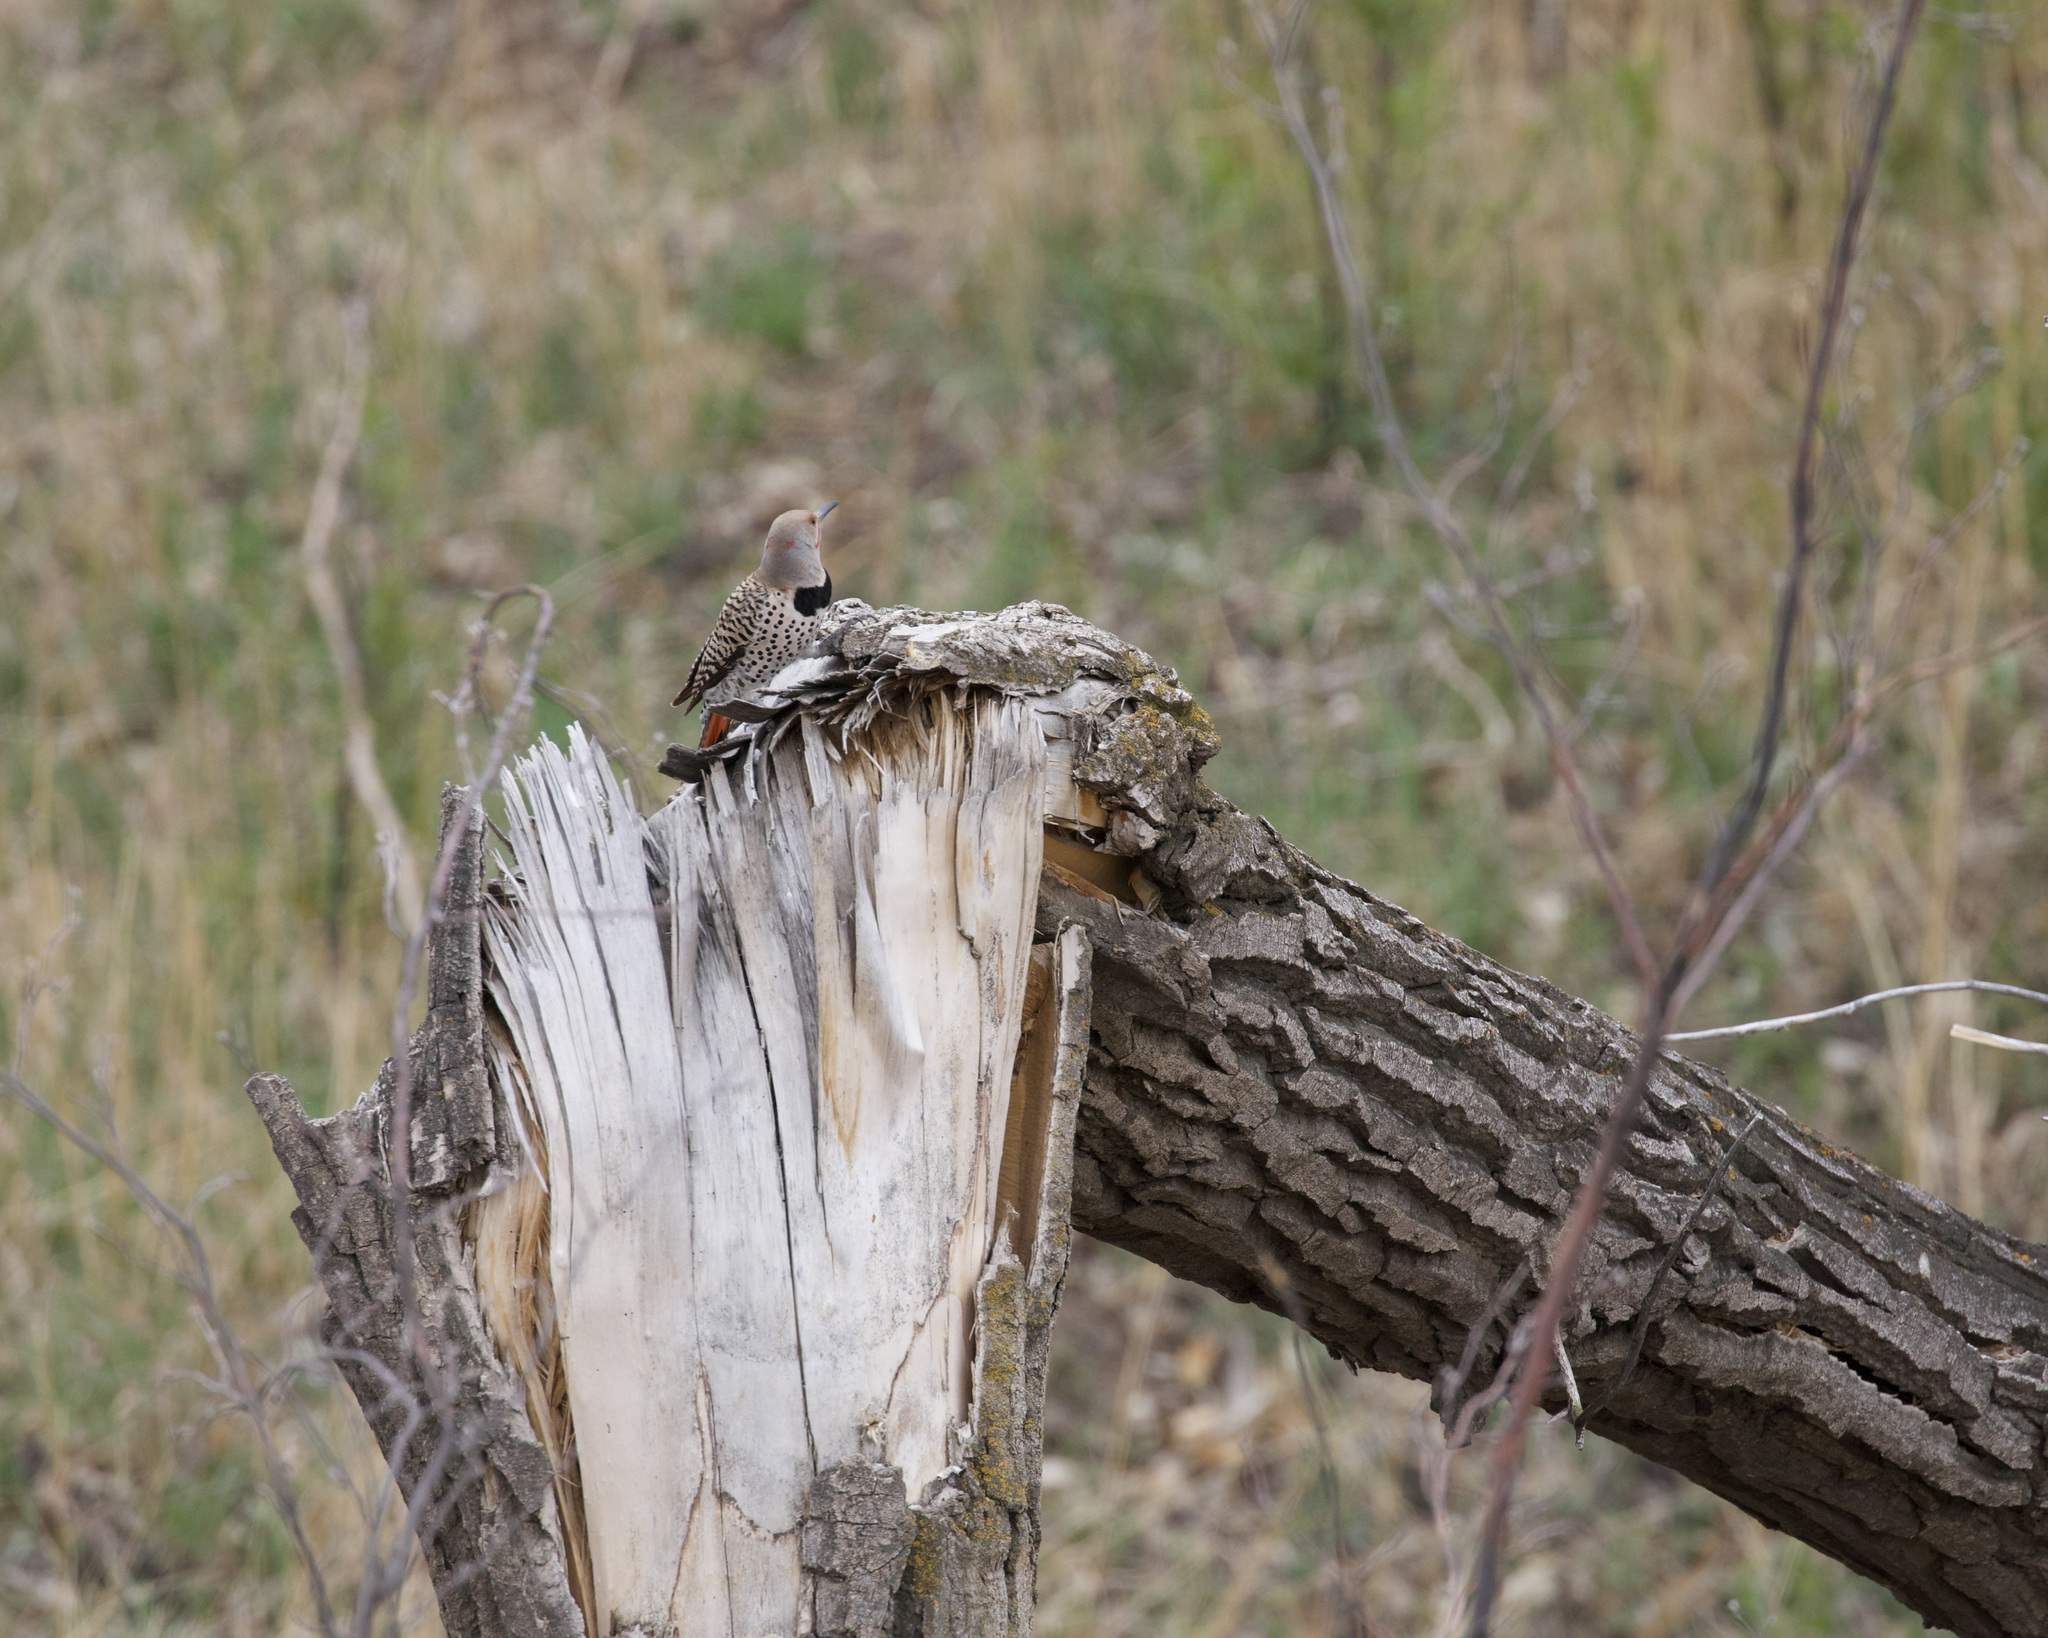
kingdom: Animalia
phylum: Chordata
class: Aves
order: Piciformes
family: Picidae
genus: Colaptes
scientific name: Colaptes auratus
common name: Northern flicker
